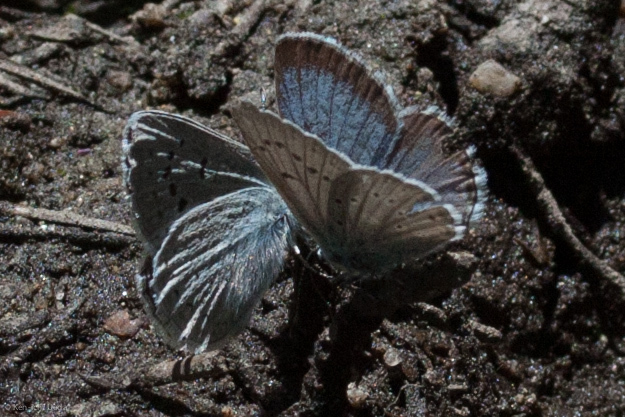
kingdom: Animalia
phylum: Arthropoda
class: Insecta
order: Lepidoptera
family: Lycaenidae
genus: Icaricia
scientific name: Icaricia icarioides
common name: Boisduval's blue
